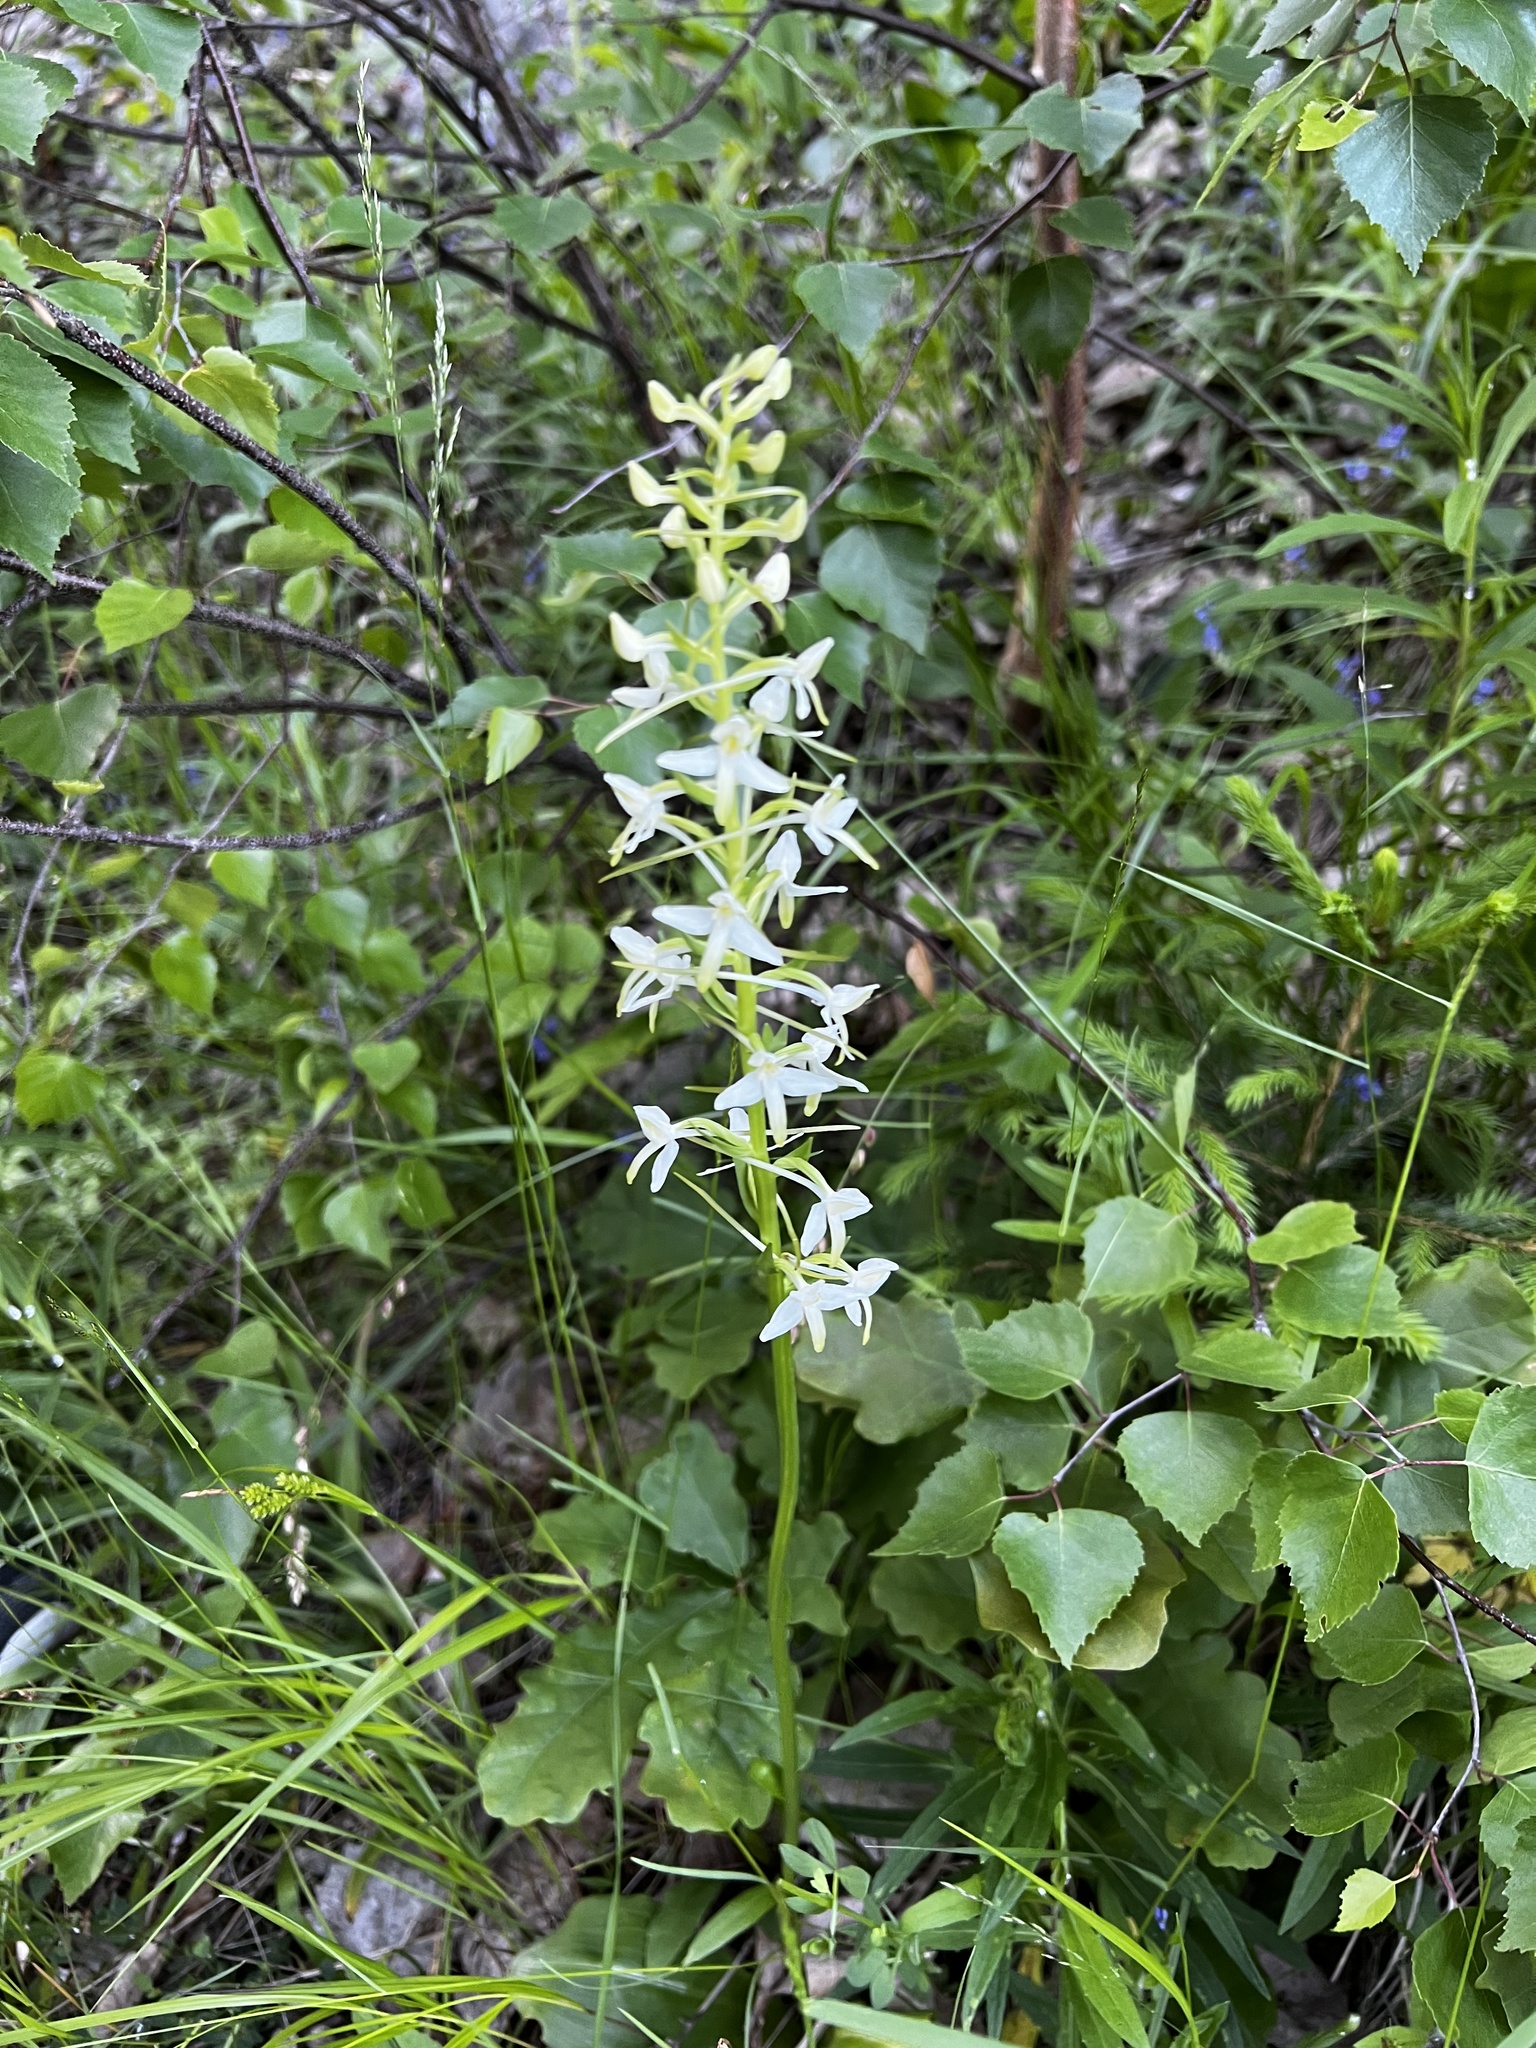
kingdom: Plantae
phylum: Tracheophyta
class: Liliopsida
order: Asparagales
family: Orchidaceae
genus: Platanthera
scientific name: Platanthera bifolia
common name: Lesser butterfly-orchid
